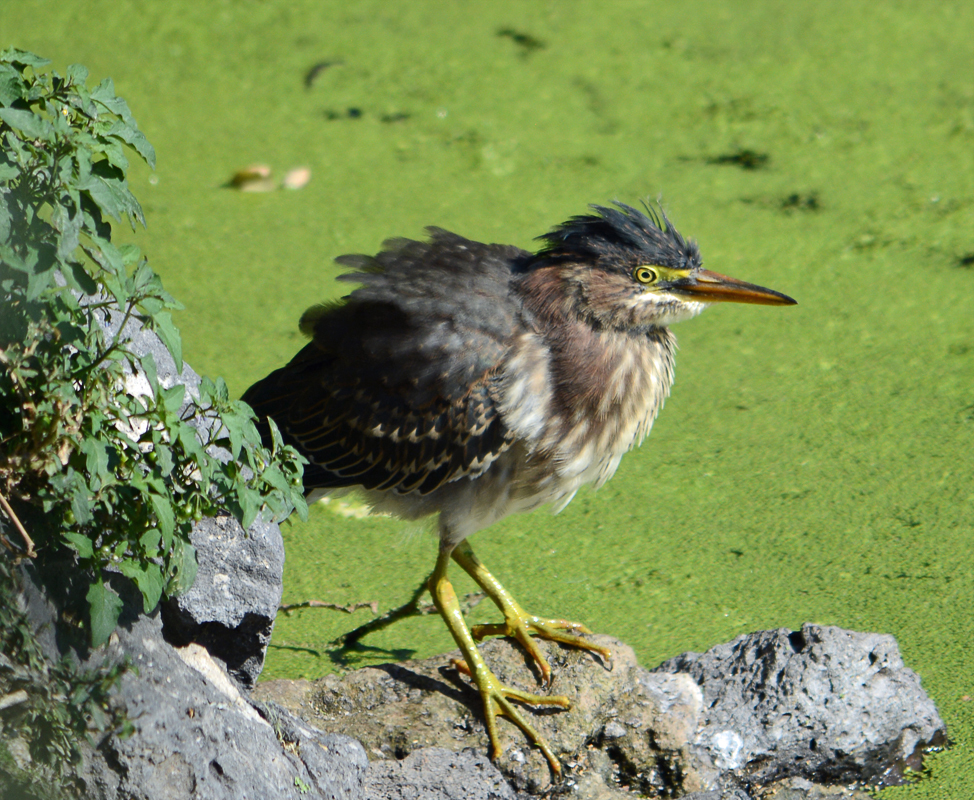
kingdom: Animalia
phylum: Chordata
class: Aves
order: Pelecaniformes
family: Ardeidae
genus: Butorides
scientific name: Butorides virescens
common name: Green heron
